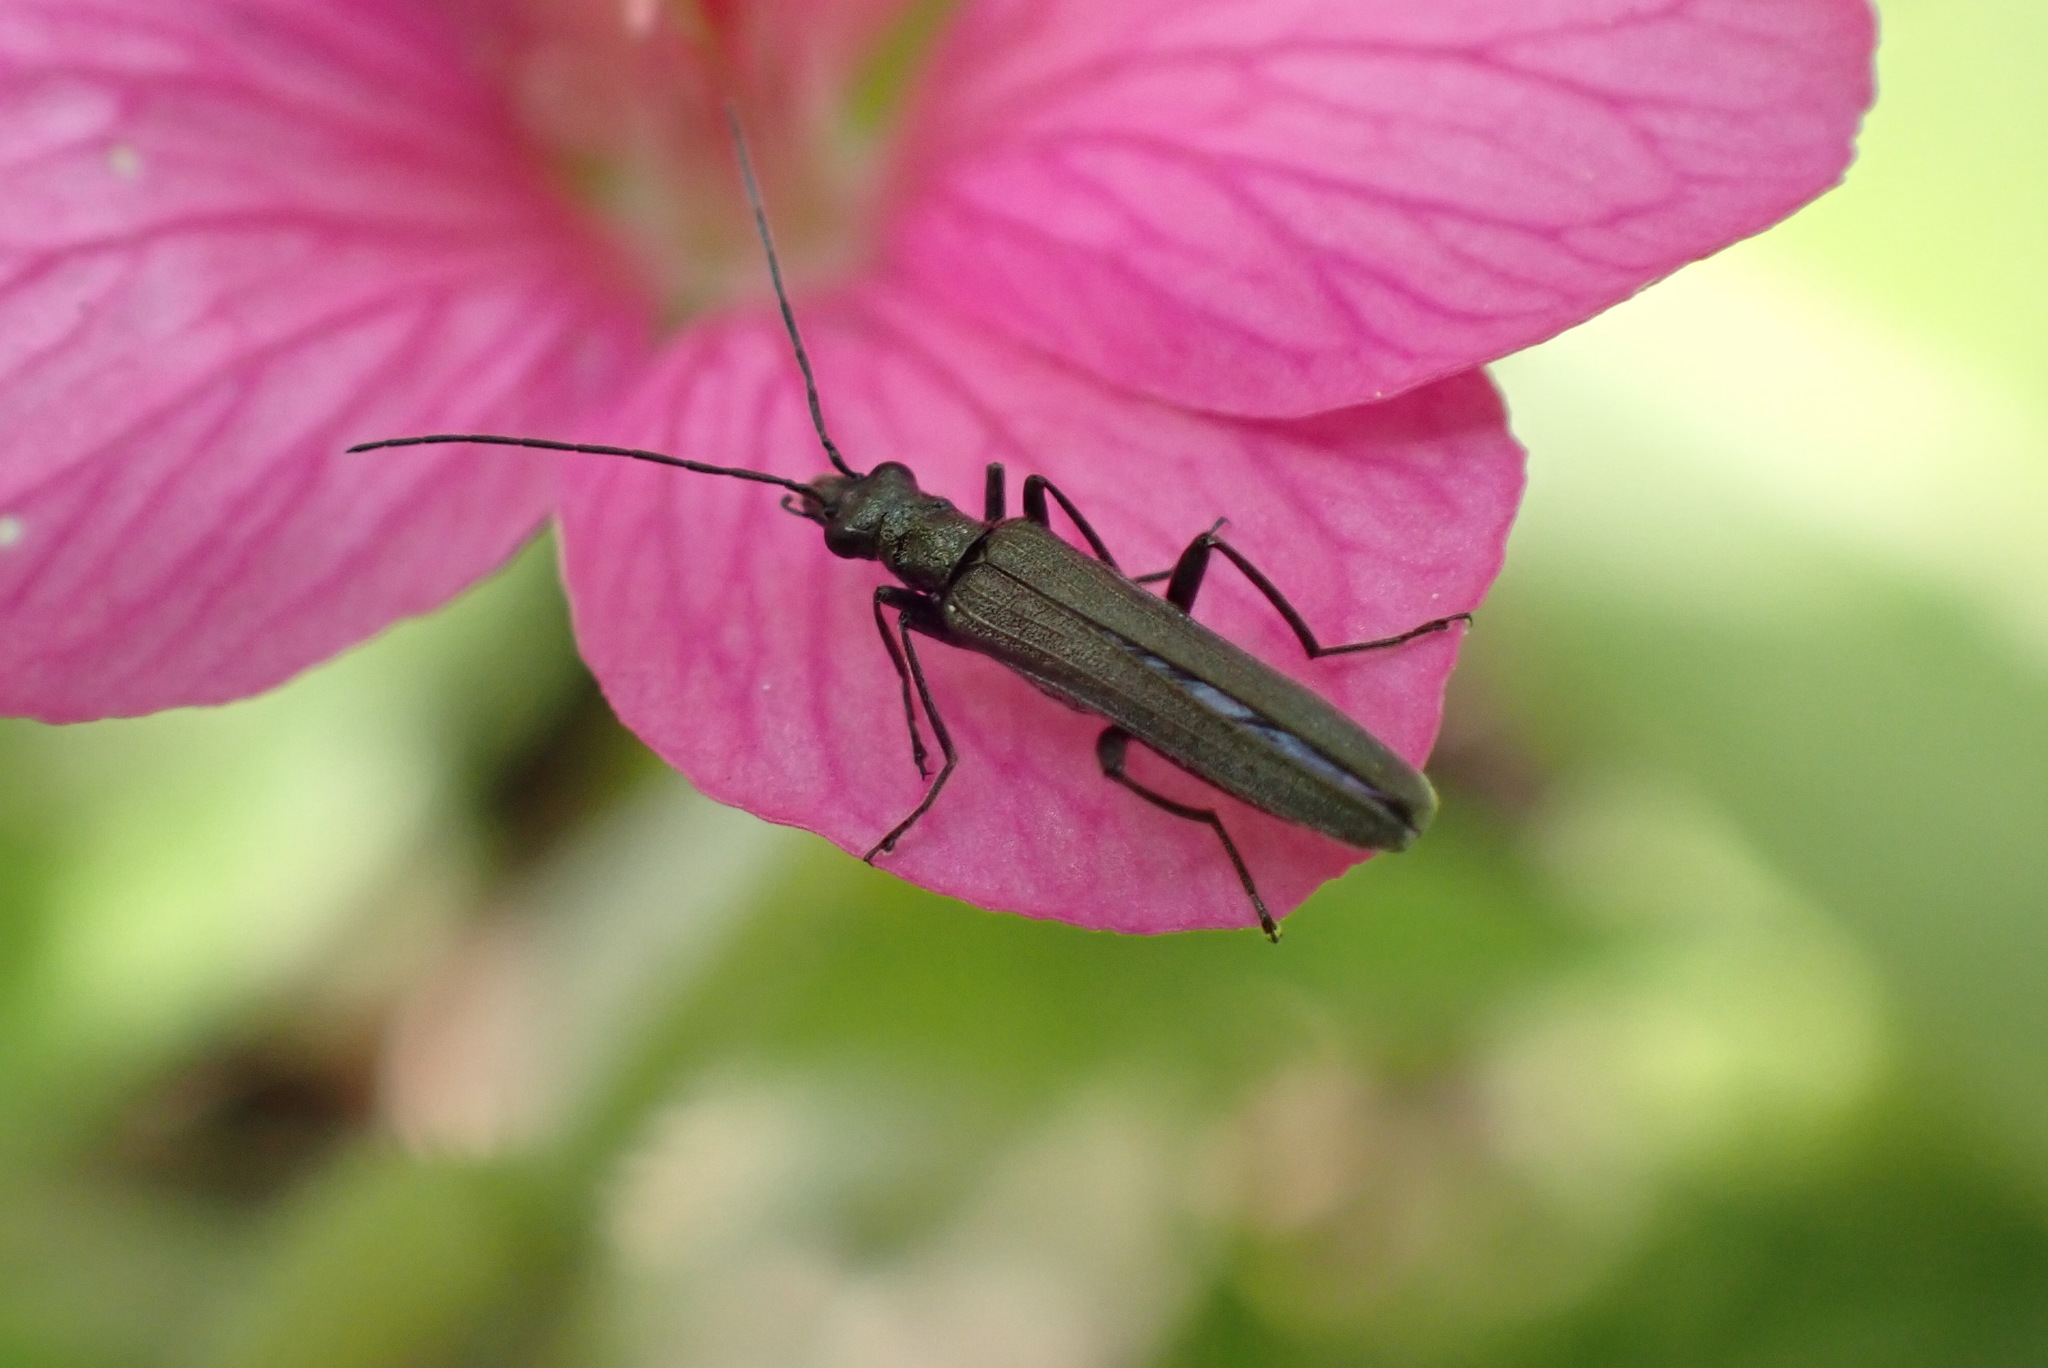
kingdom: Animalia
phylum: Arthropoda
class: Insecta
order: Coleoptera
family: Oedemeridae
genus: Oedemera
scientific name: Oedemera lurida
